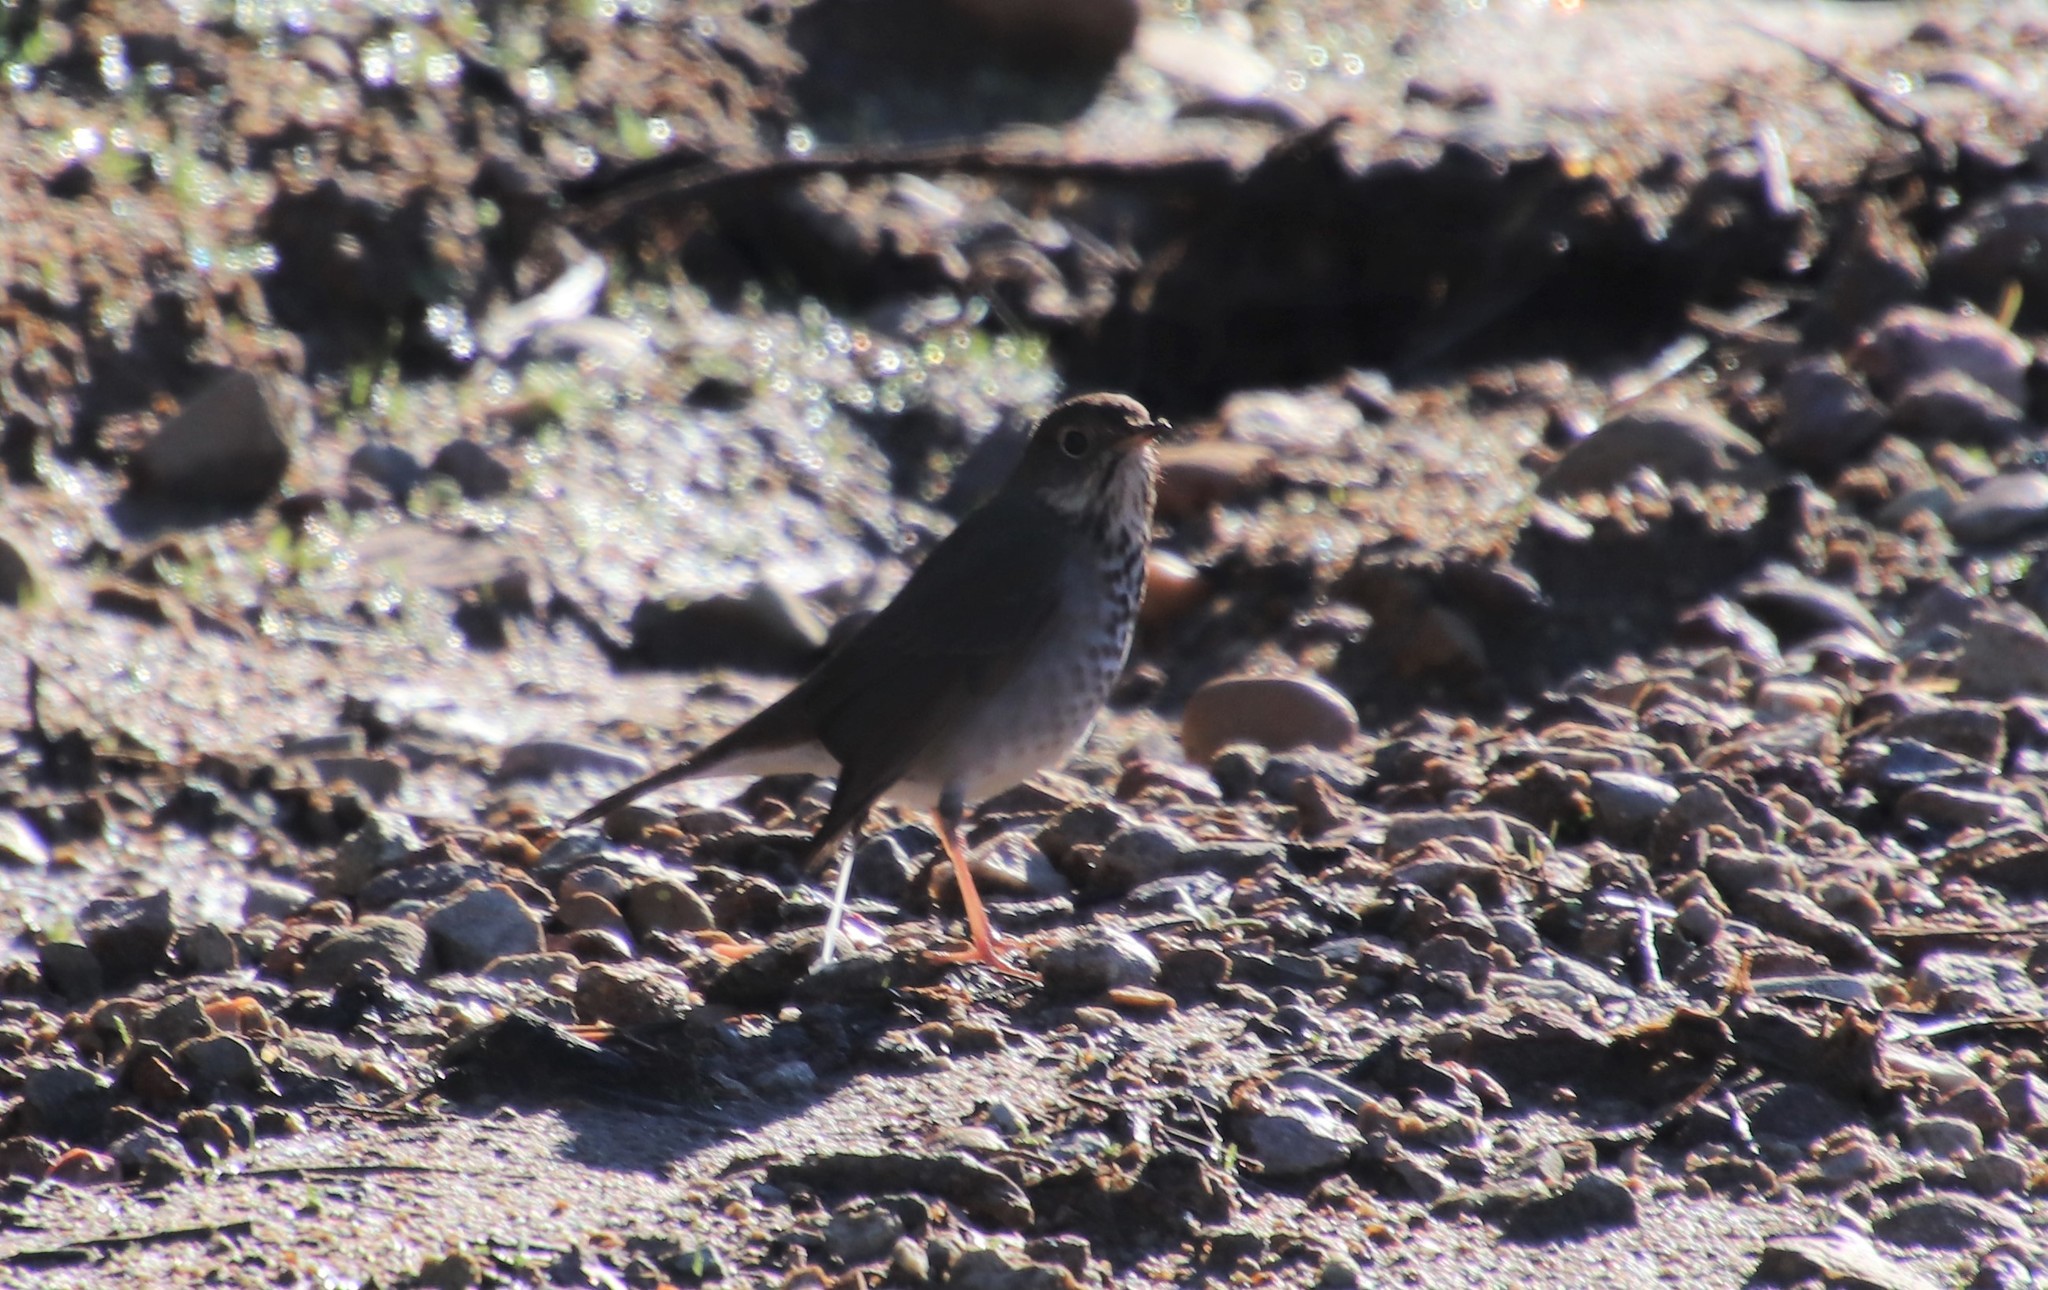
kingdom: Animalia
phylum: Chordata
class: Aves
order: Passeriformes
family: Turdidae
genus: Catharus
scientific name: Catharus guttatus
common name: Hermit thrush
